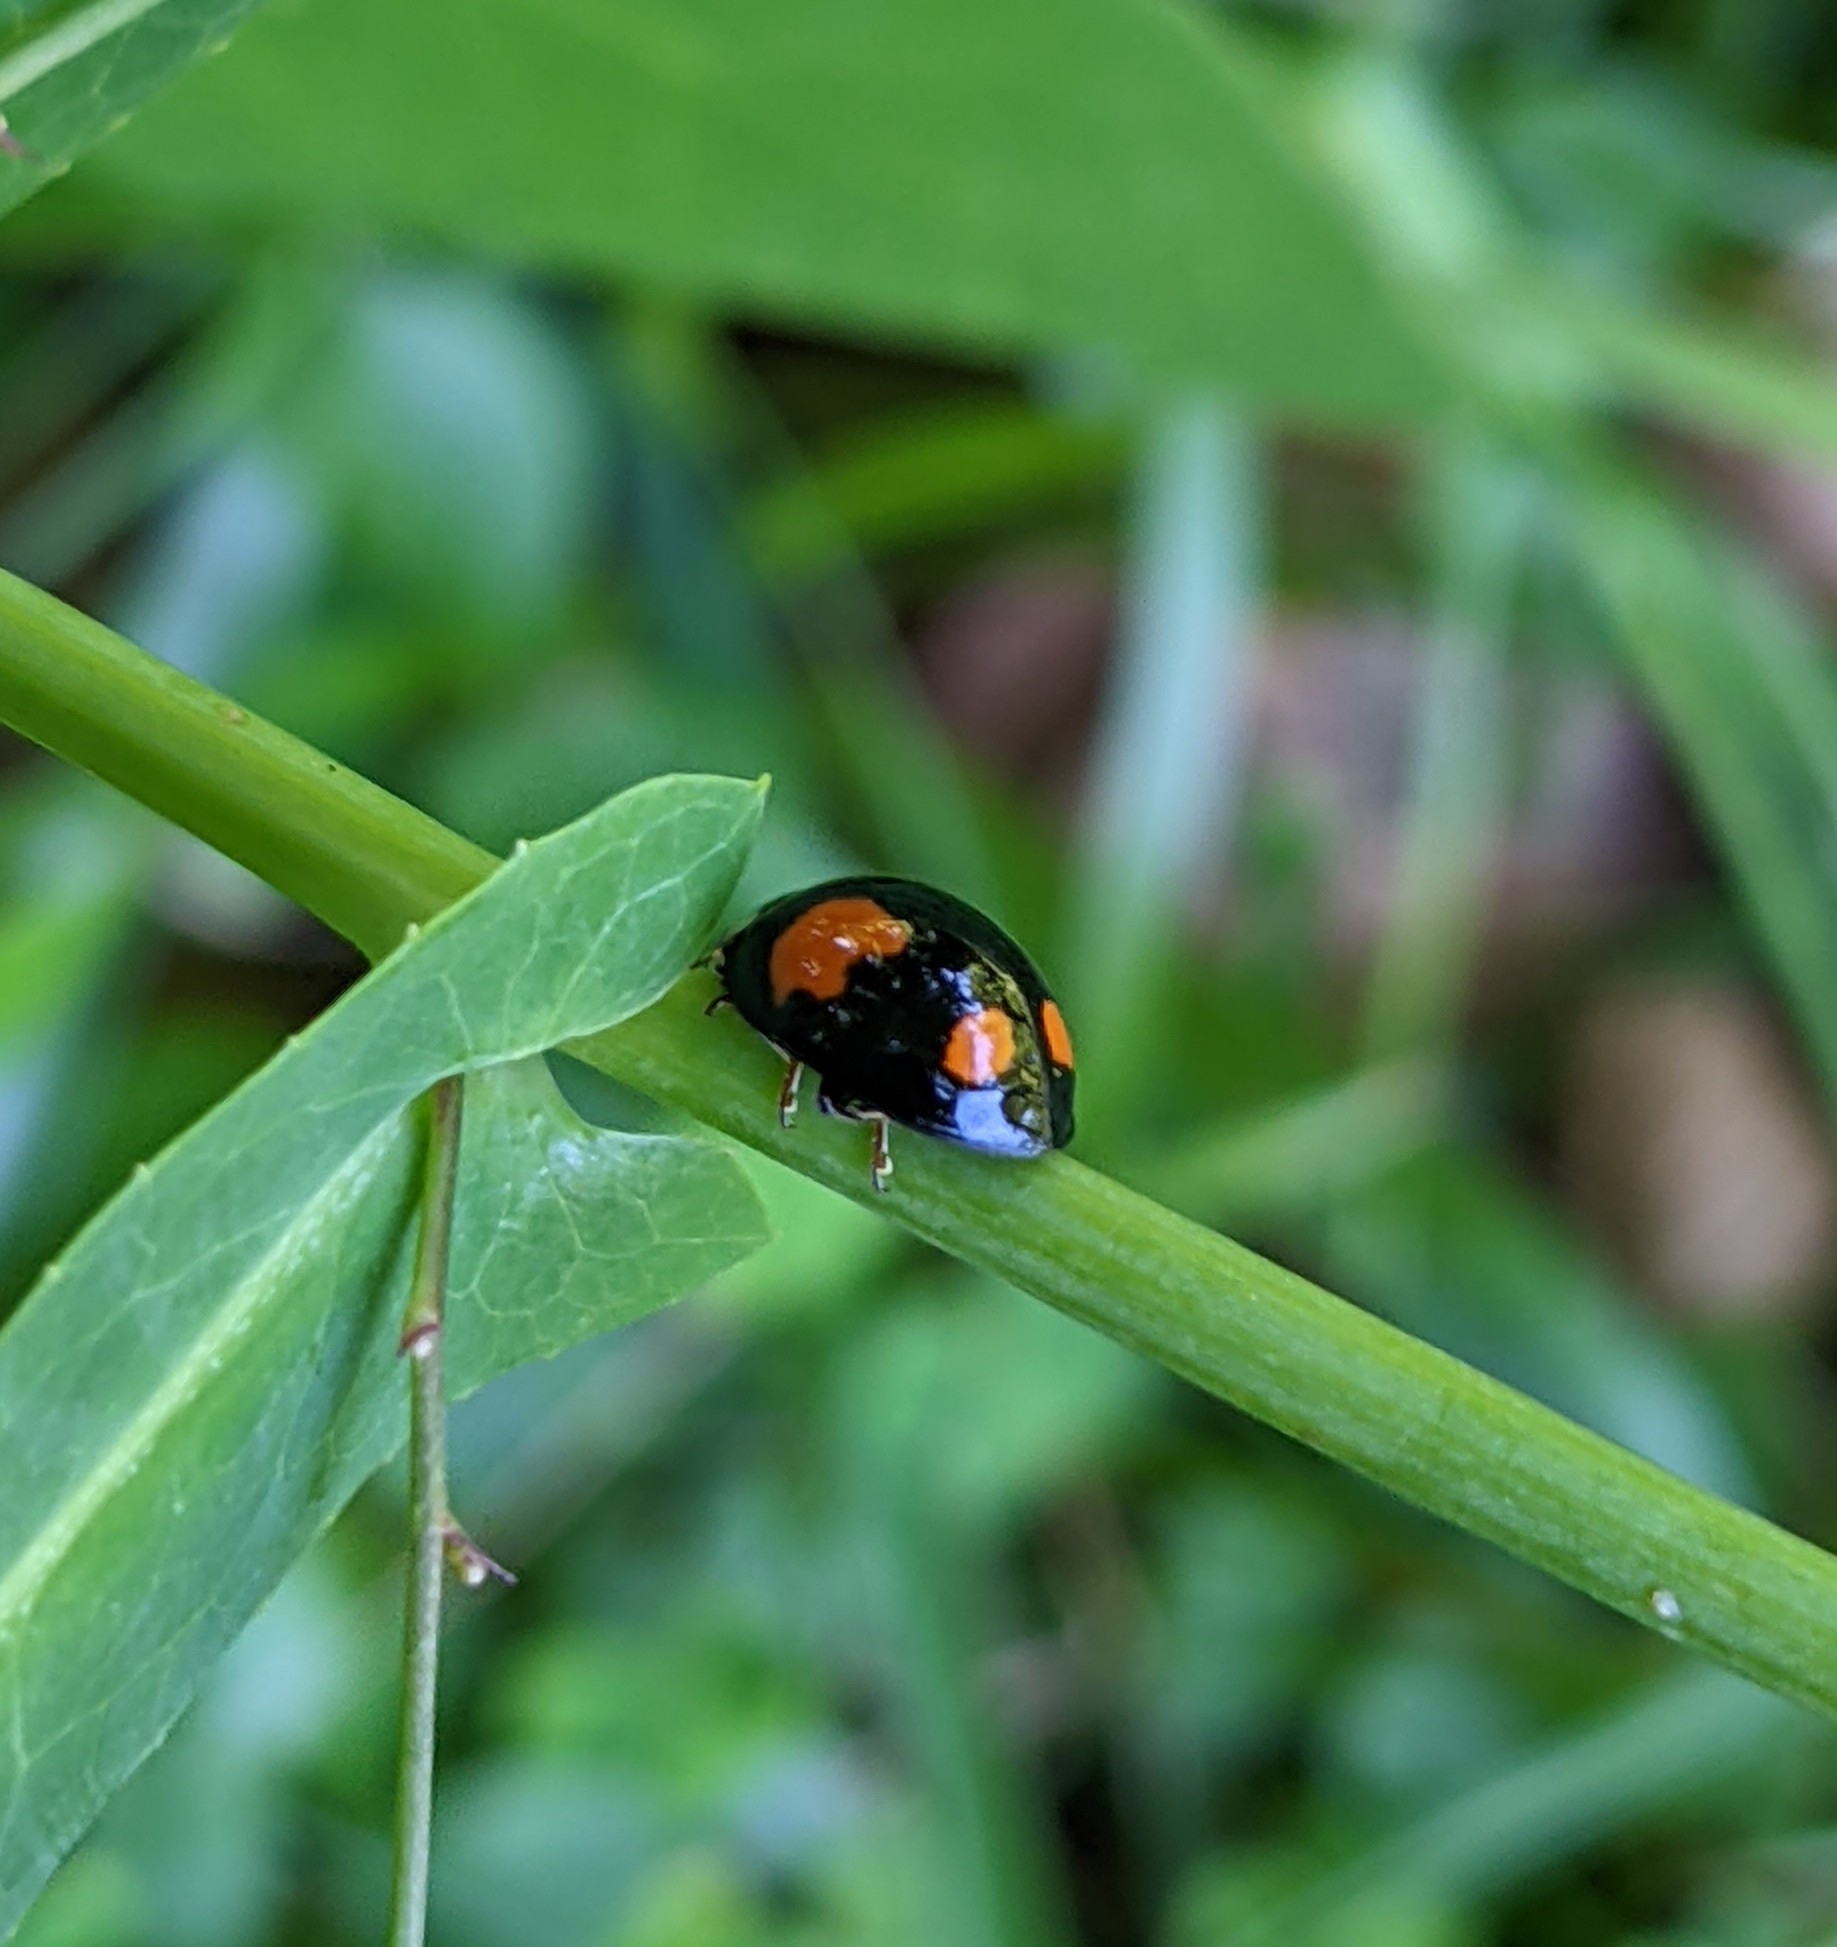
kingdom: Animalia
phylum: Arthropoda
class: Insecta
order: Coleoptera
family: Coccinellidae
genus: Harmonia
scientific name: Harmonia axyridis
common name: Harlequin ladybird
